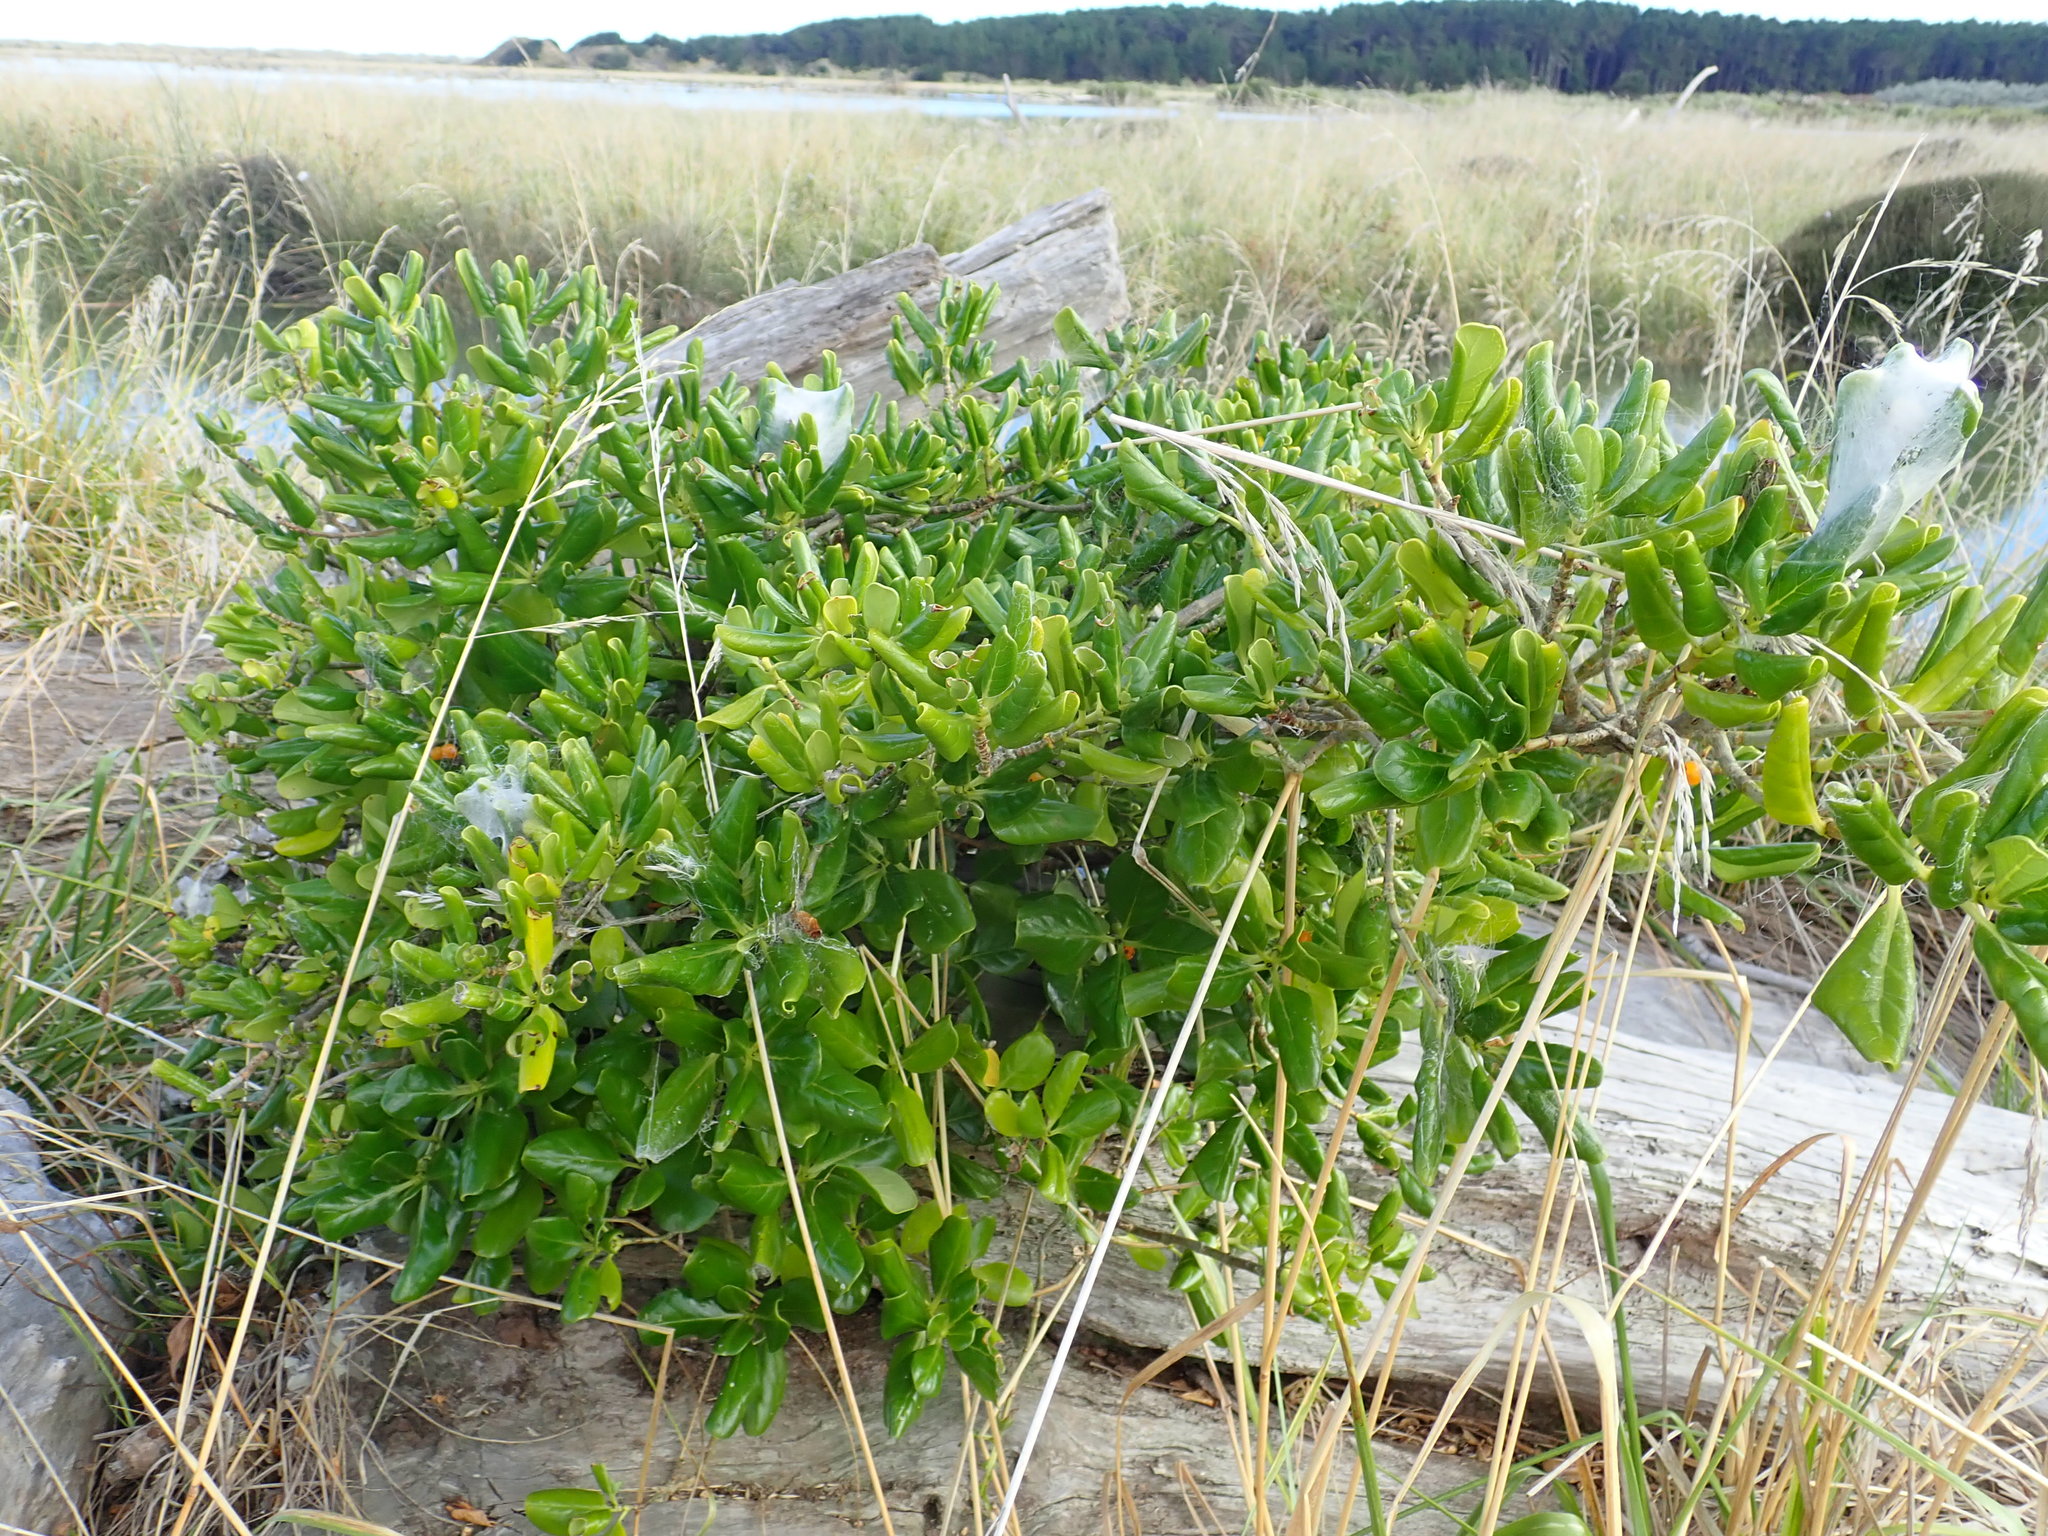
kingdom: Plantae
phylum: Tracheophyta
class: Magnoliopsida
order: Gentianales
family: Rubiaceae
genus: Coprosma
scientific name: Coprosma repens
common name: Tree bedstraw
